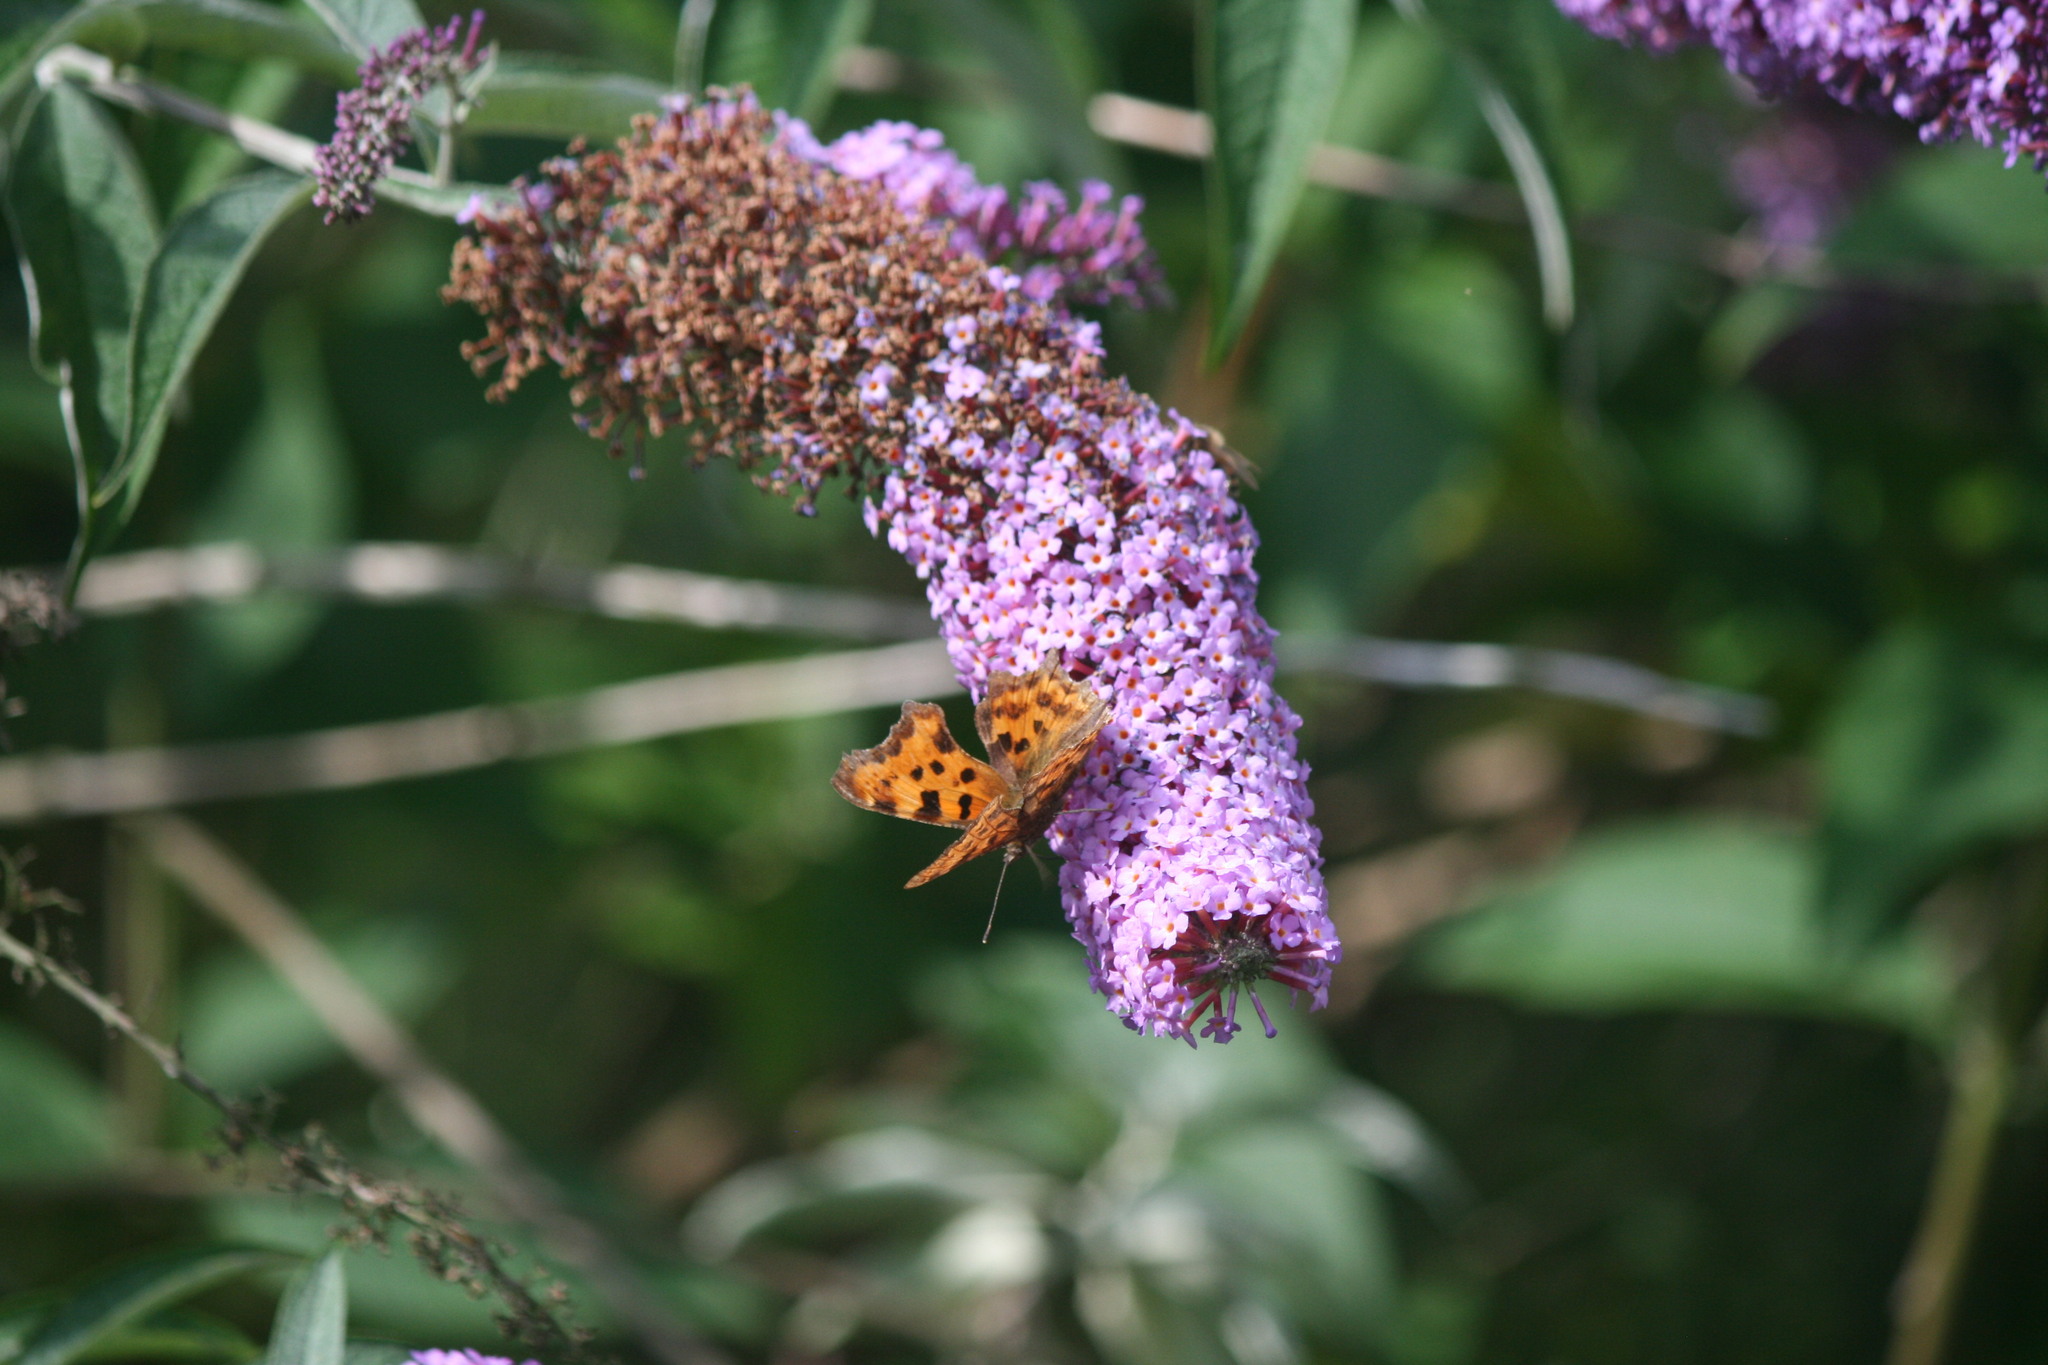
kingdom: Animalia
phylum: Arthropoda
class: Insecta
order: Lepidoptera
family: Nymphalidae
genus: Polygonia
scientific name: Polygonia c-album
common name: Comma
